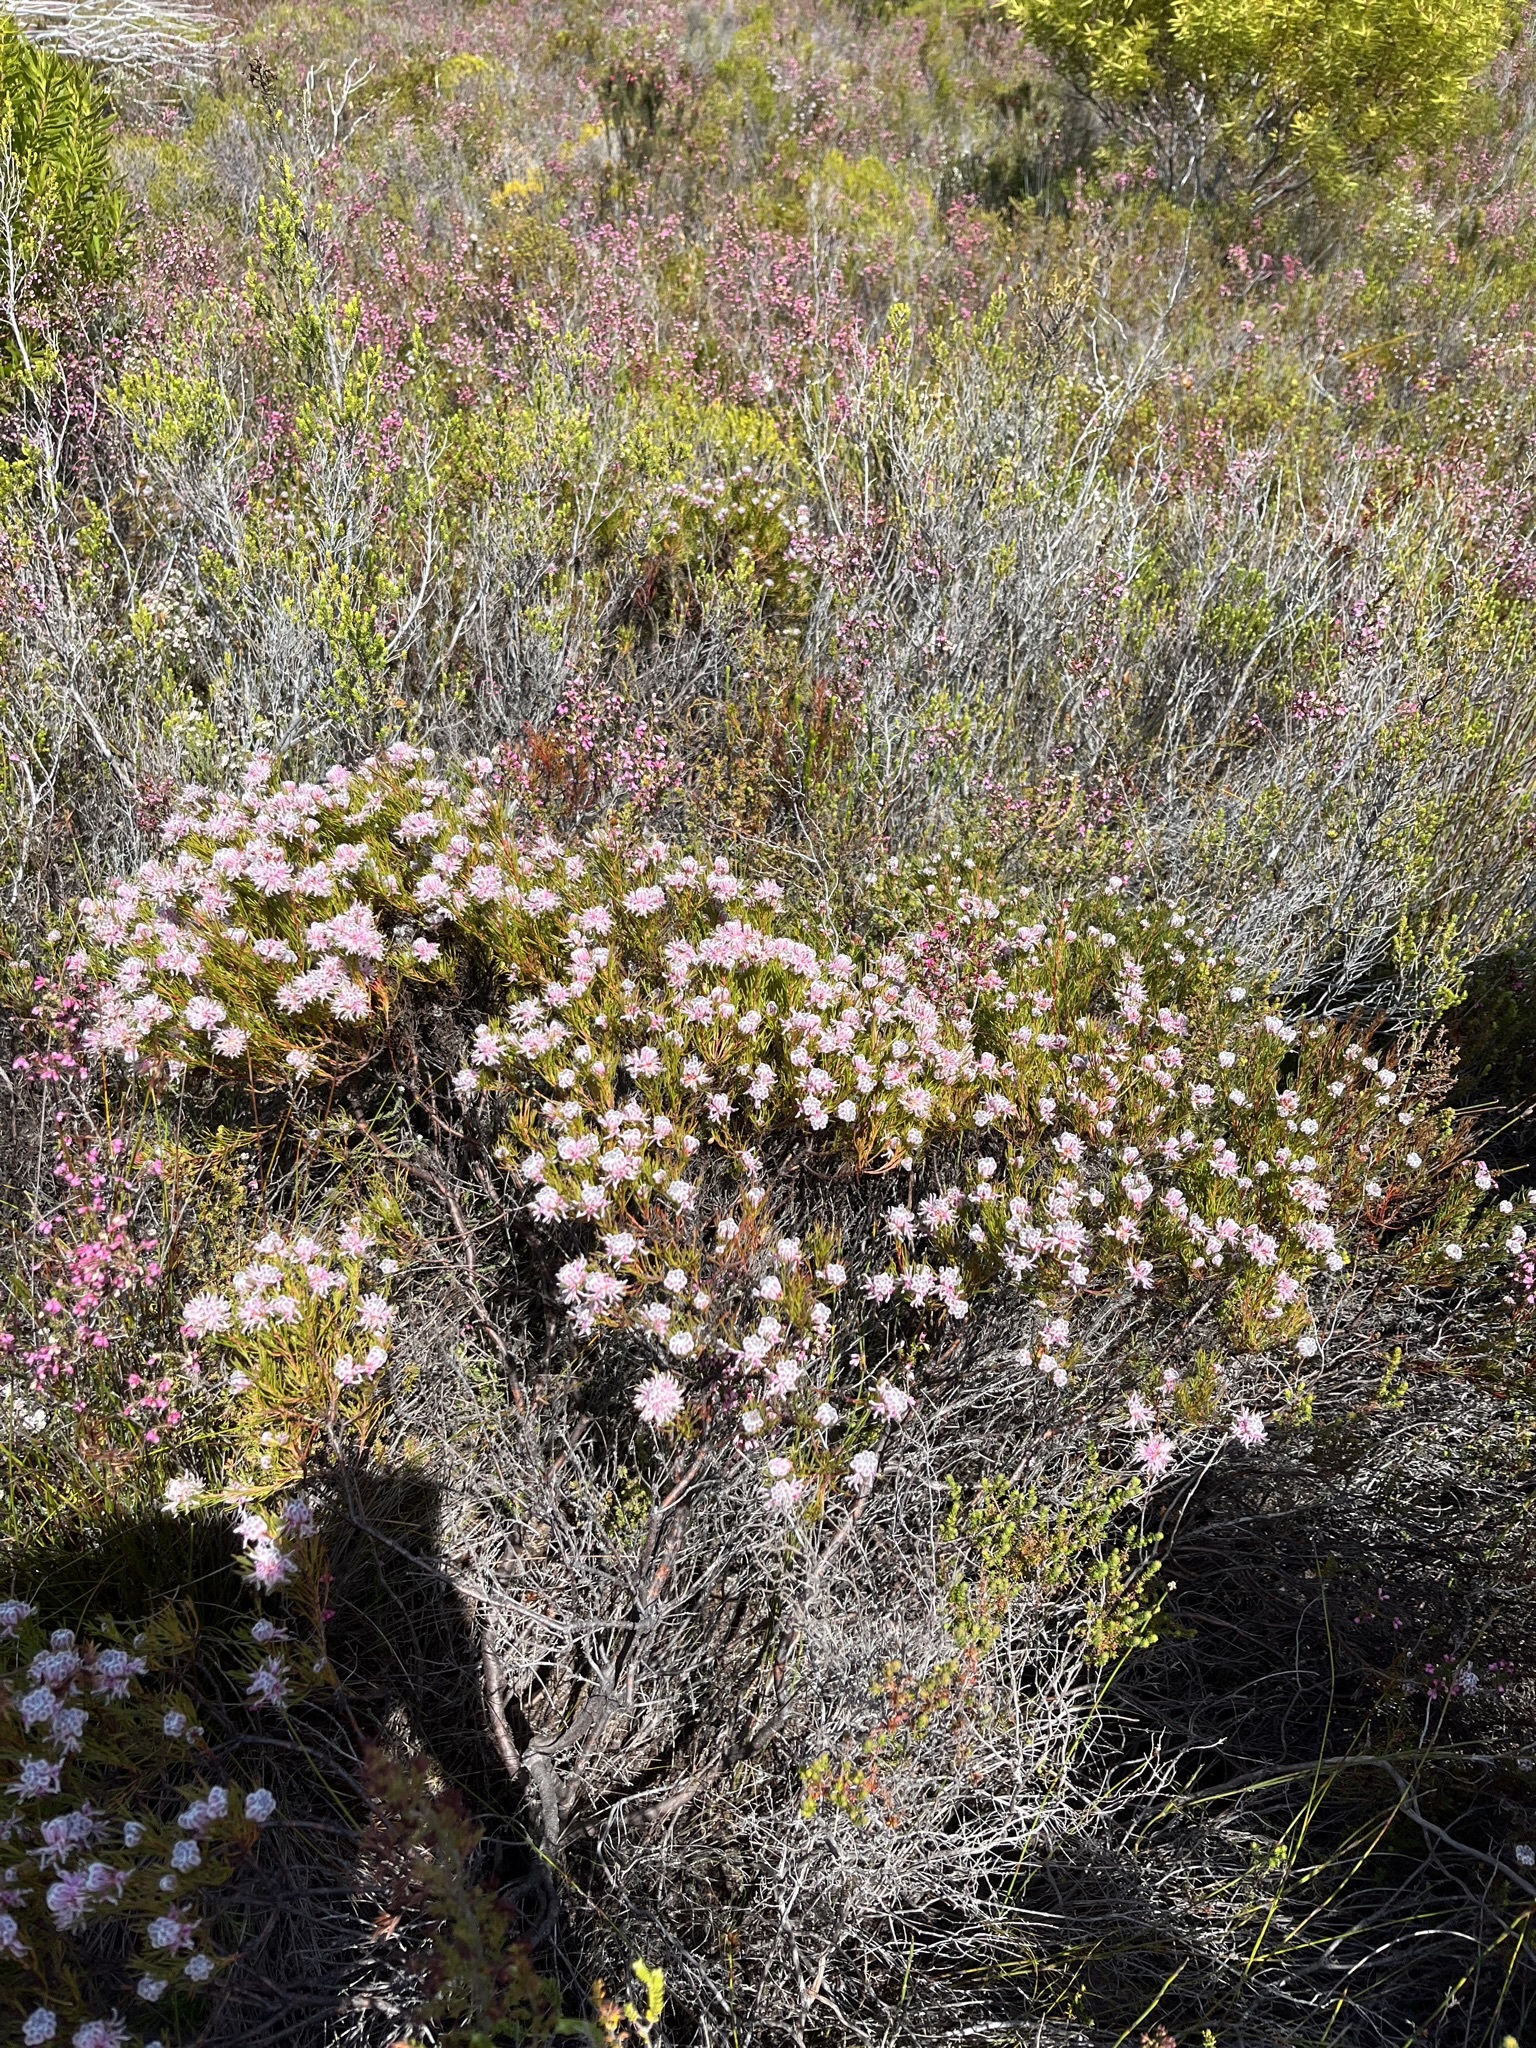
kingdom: Plantae
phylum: Tracheophyta
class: Magnoliopsida
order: Proteales
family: Proteaceae
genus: Serruria
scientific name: Serruria nervosa
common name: Fluted spiderhead
